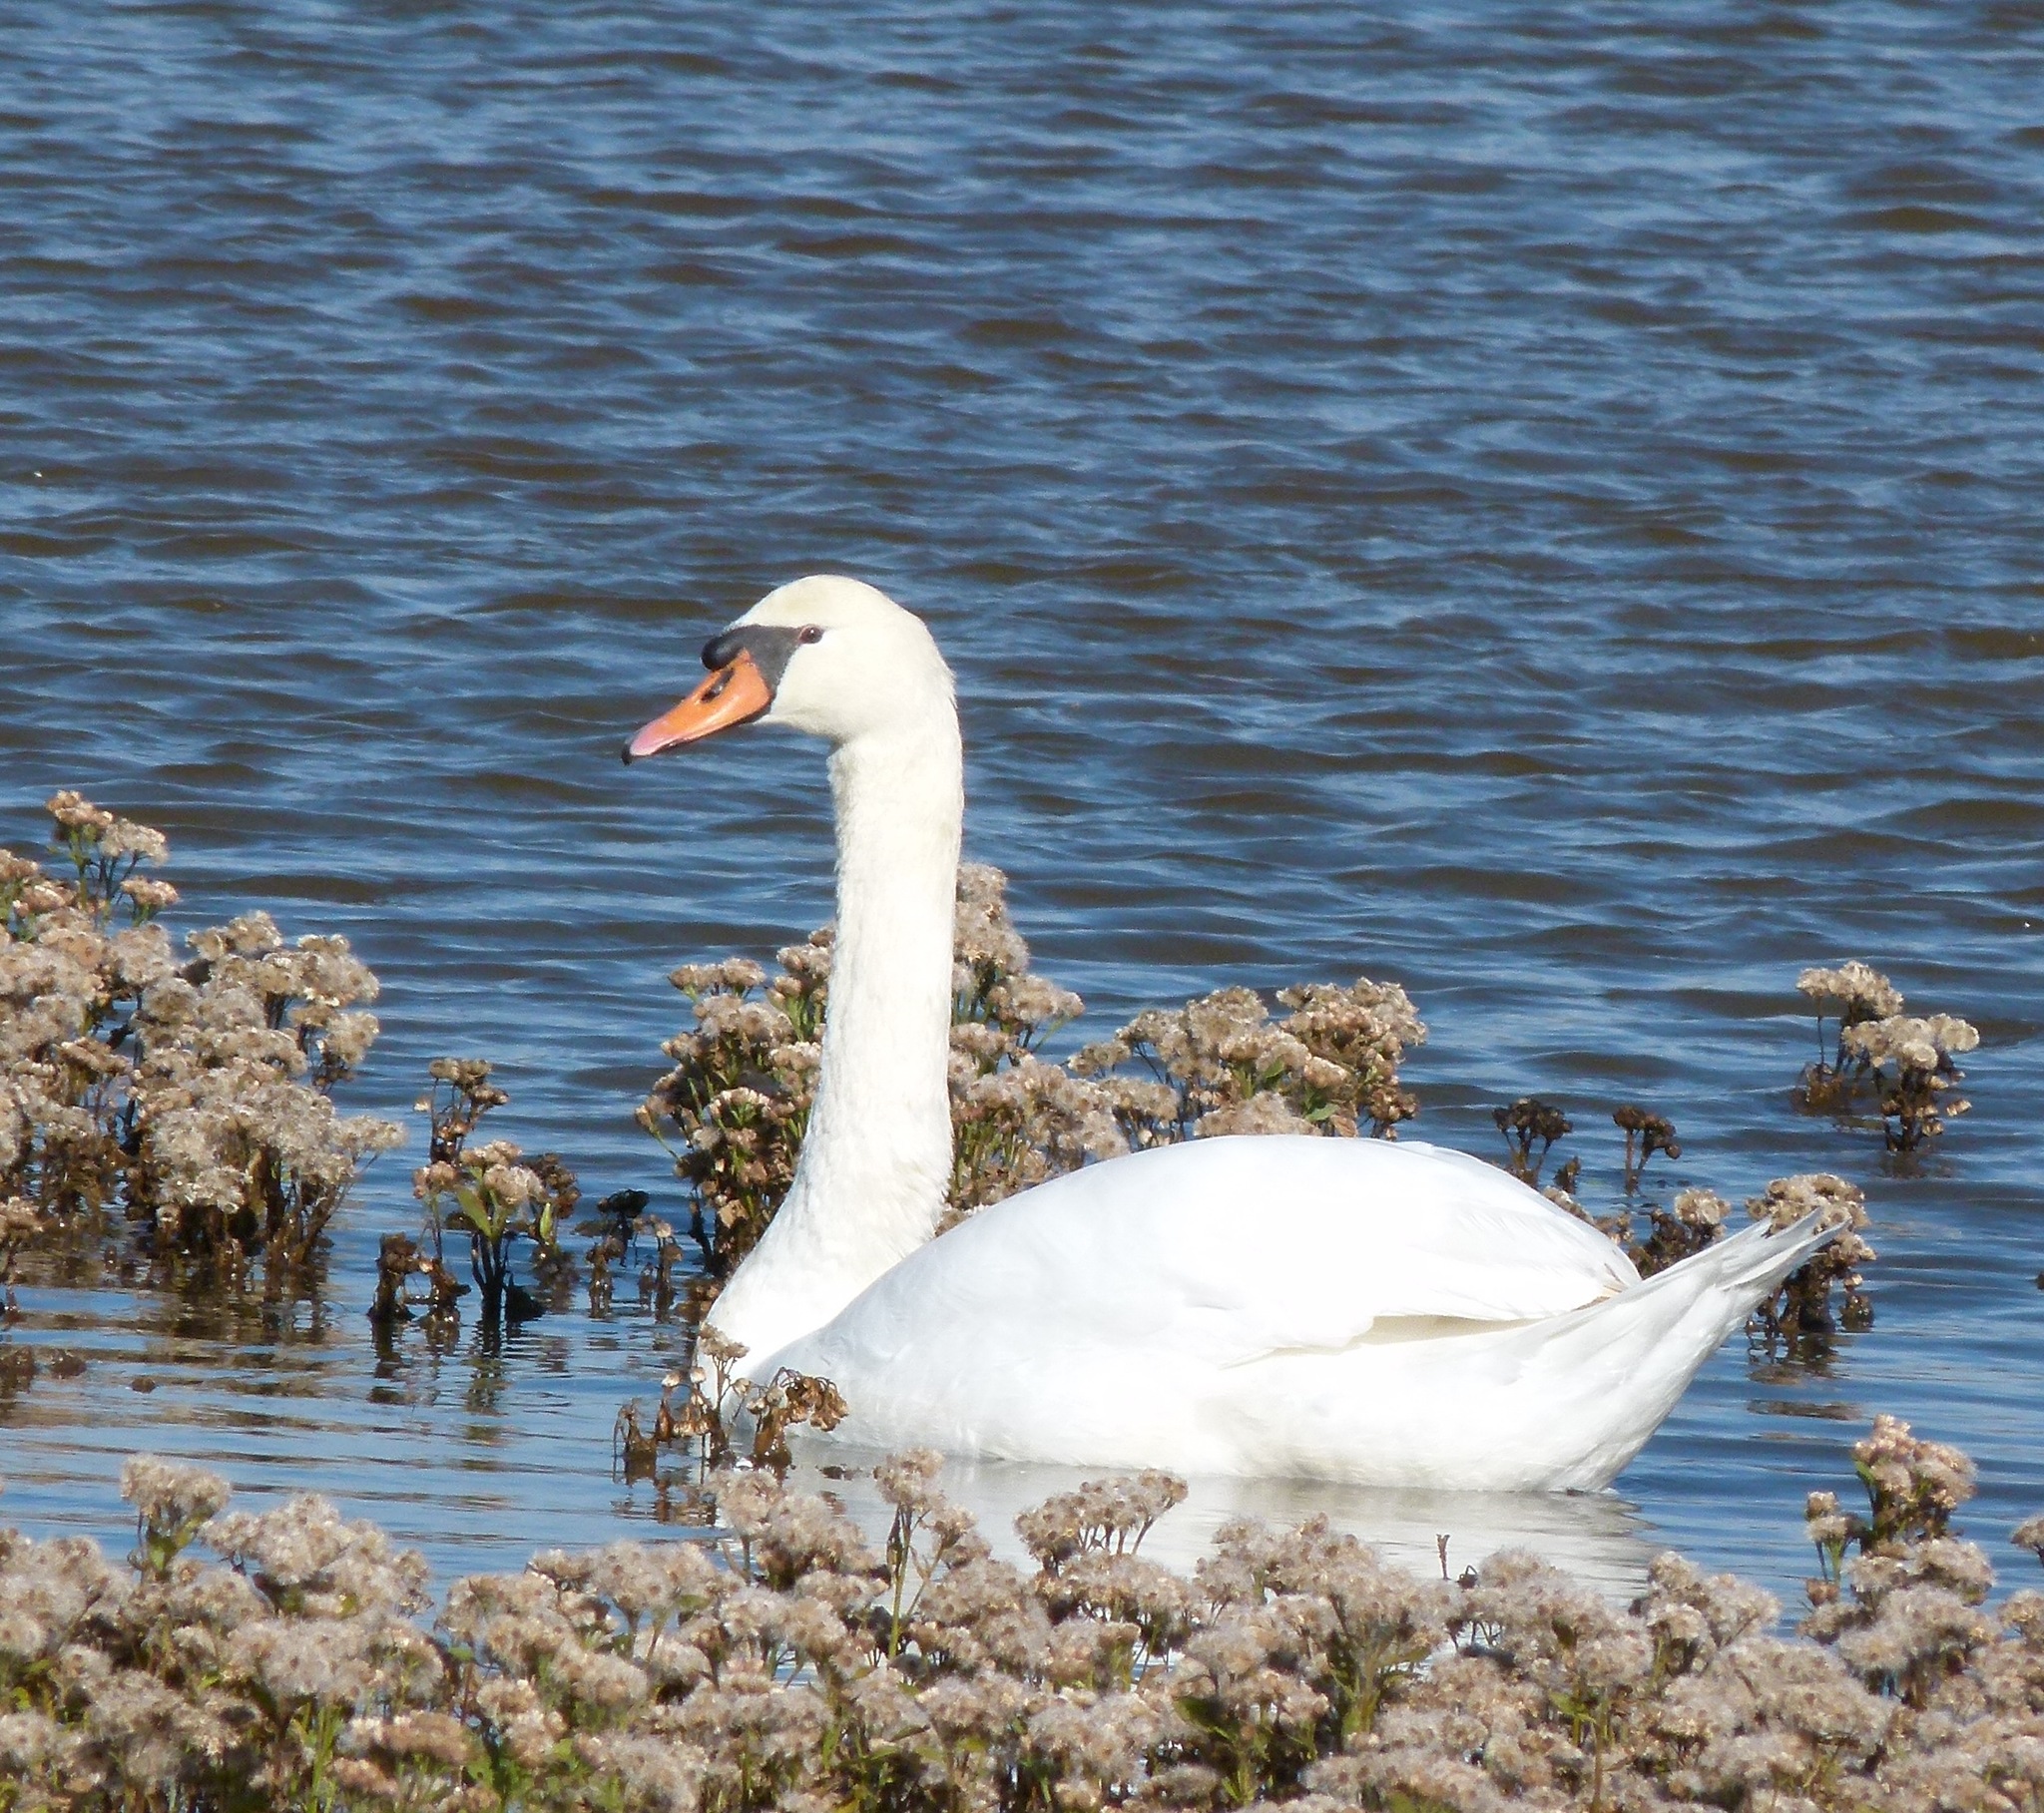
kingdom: Animalia
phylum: Chordata
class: Aves
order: Anseriformes
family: Anatidae
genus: Cygnus
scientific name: Cygnus olor
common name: Mute swan
